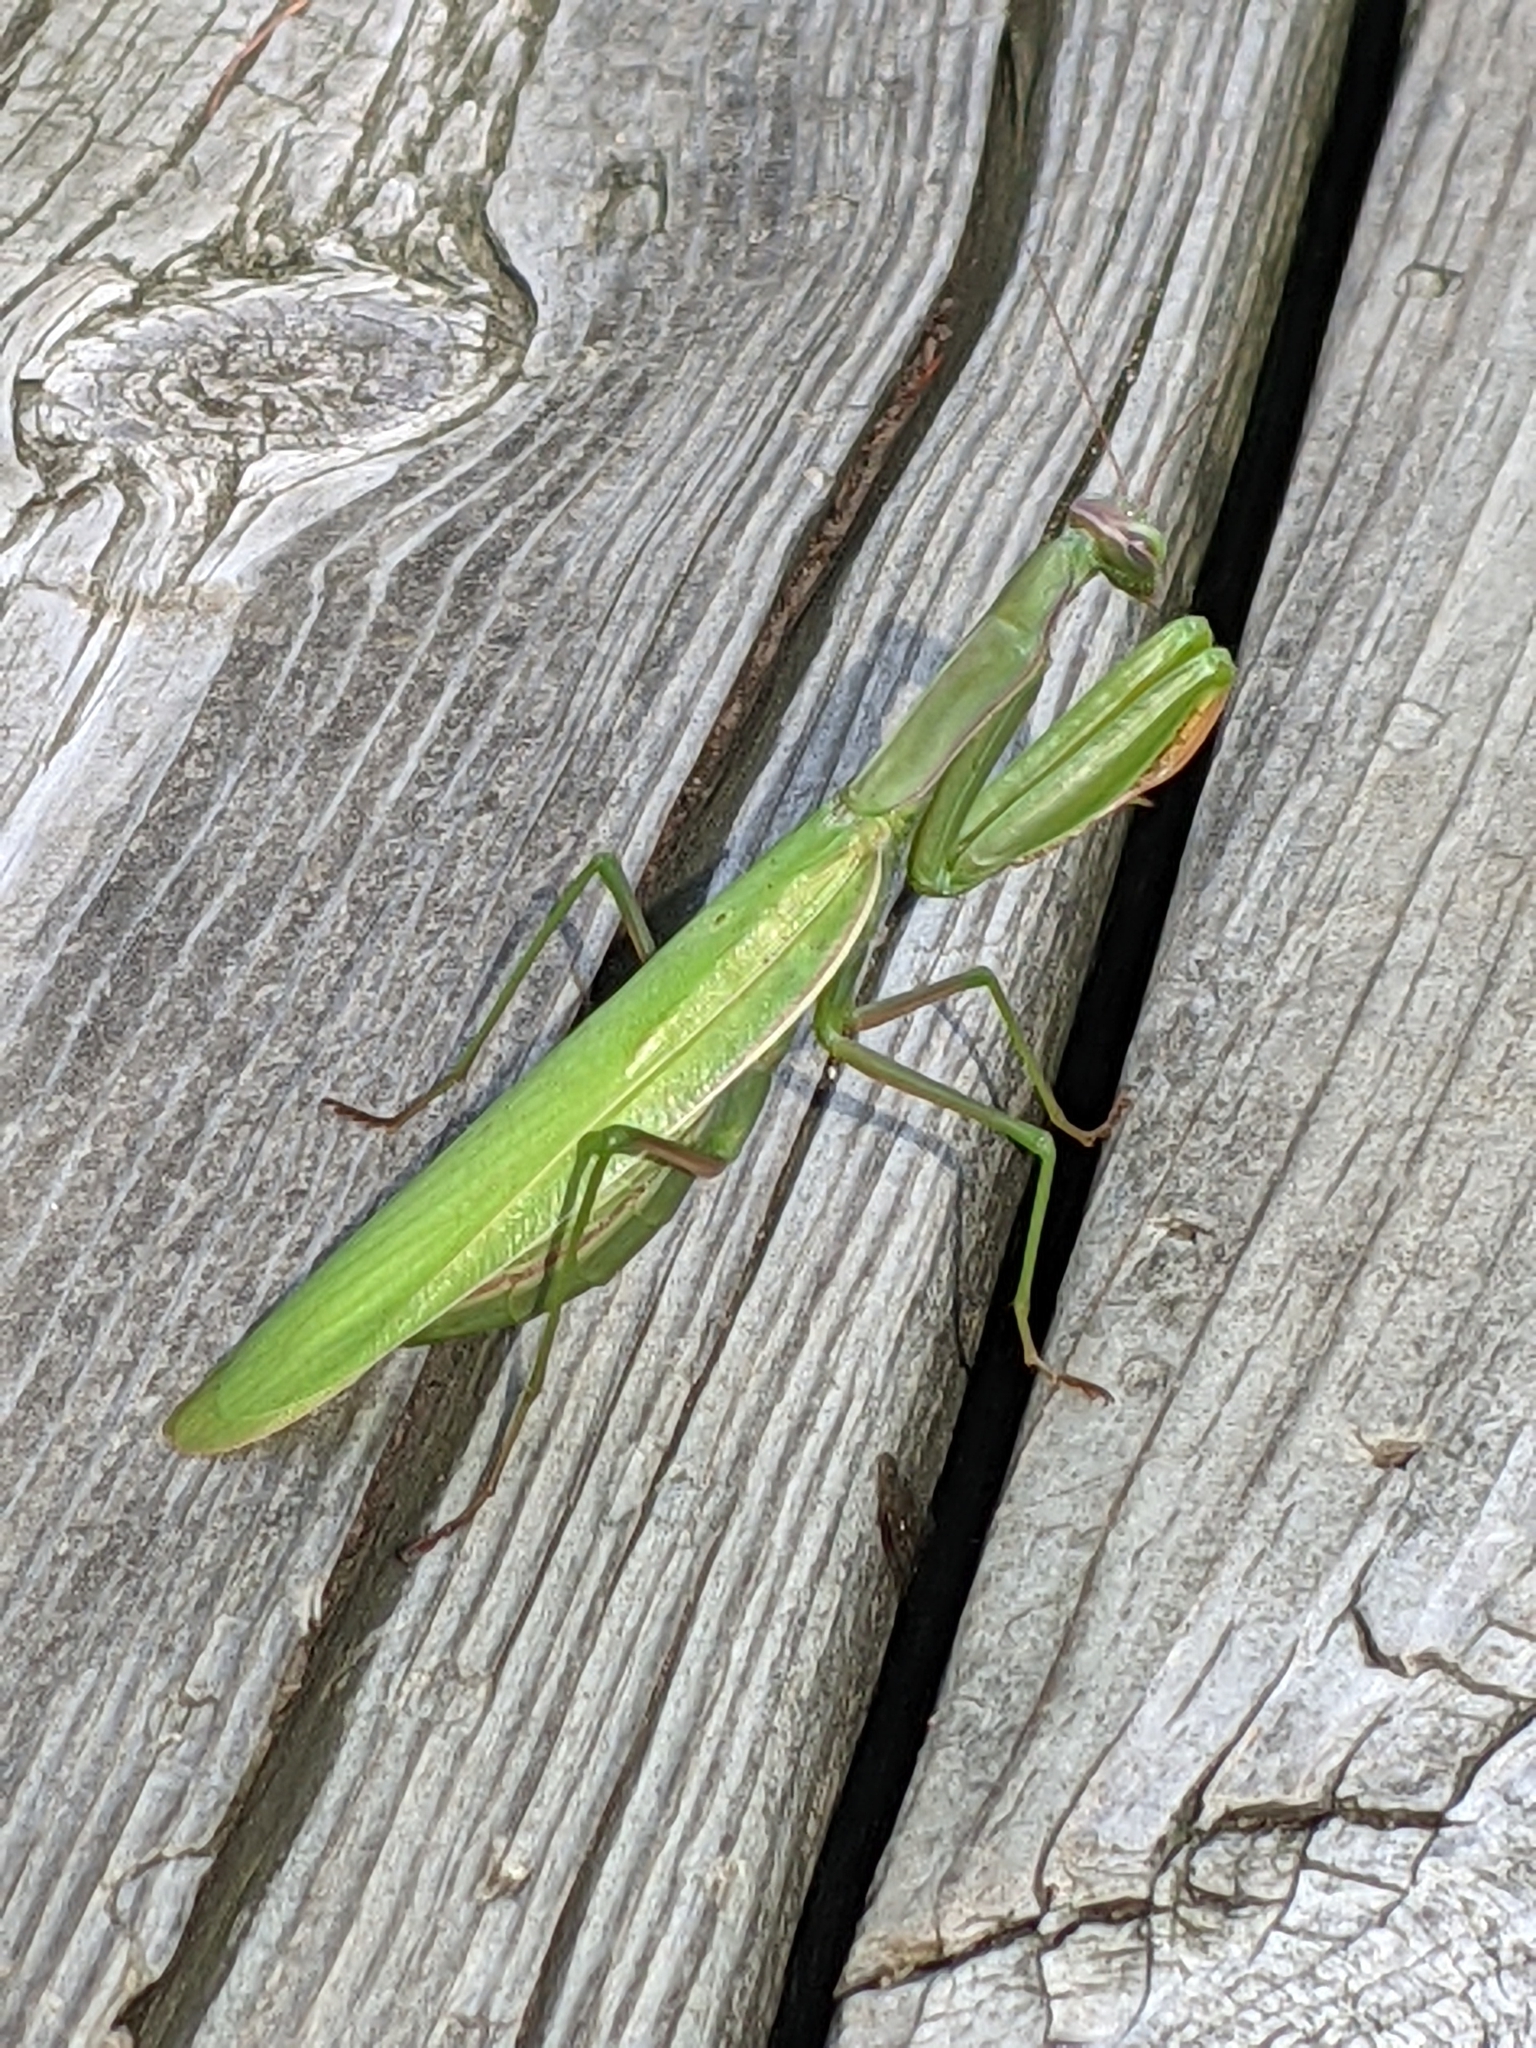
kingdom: Animalia
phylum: Arthropoda
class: Insecta
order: Mantodea
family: Mantidae
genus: Mantis
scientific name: Mantis religiosa
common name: Praying mantis
